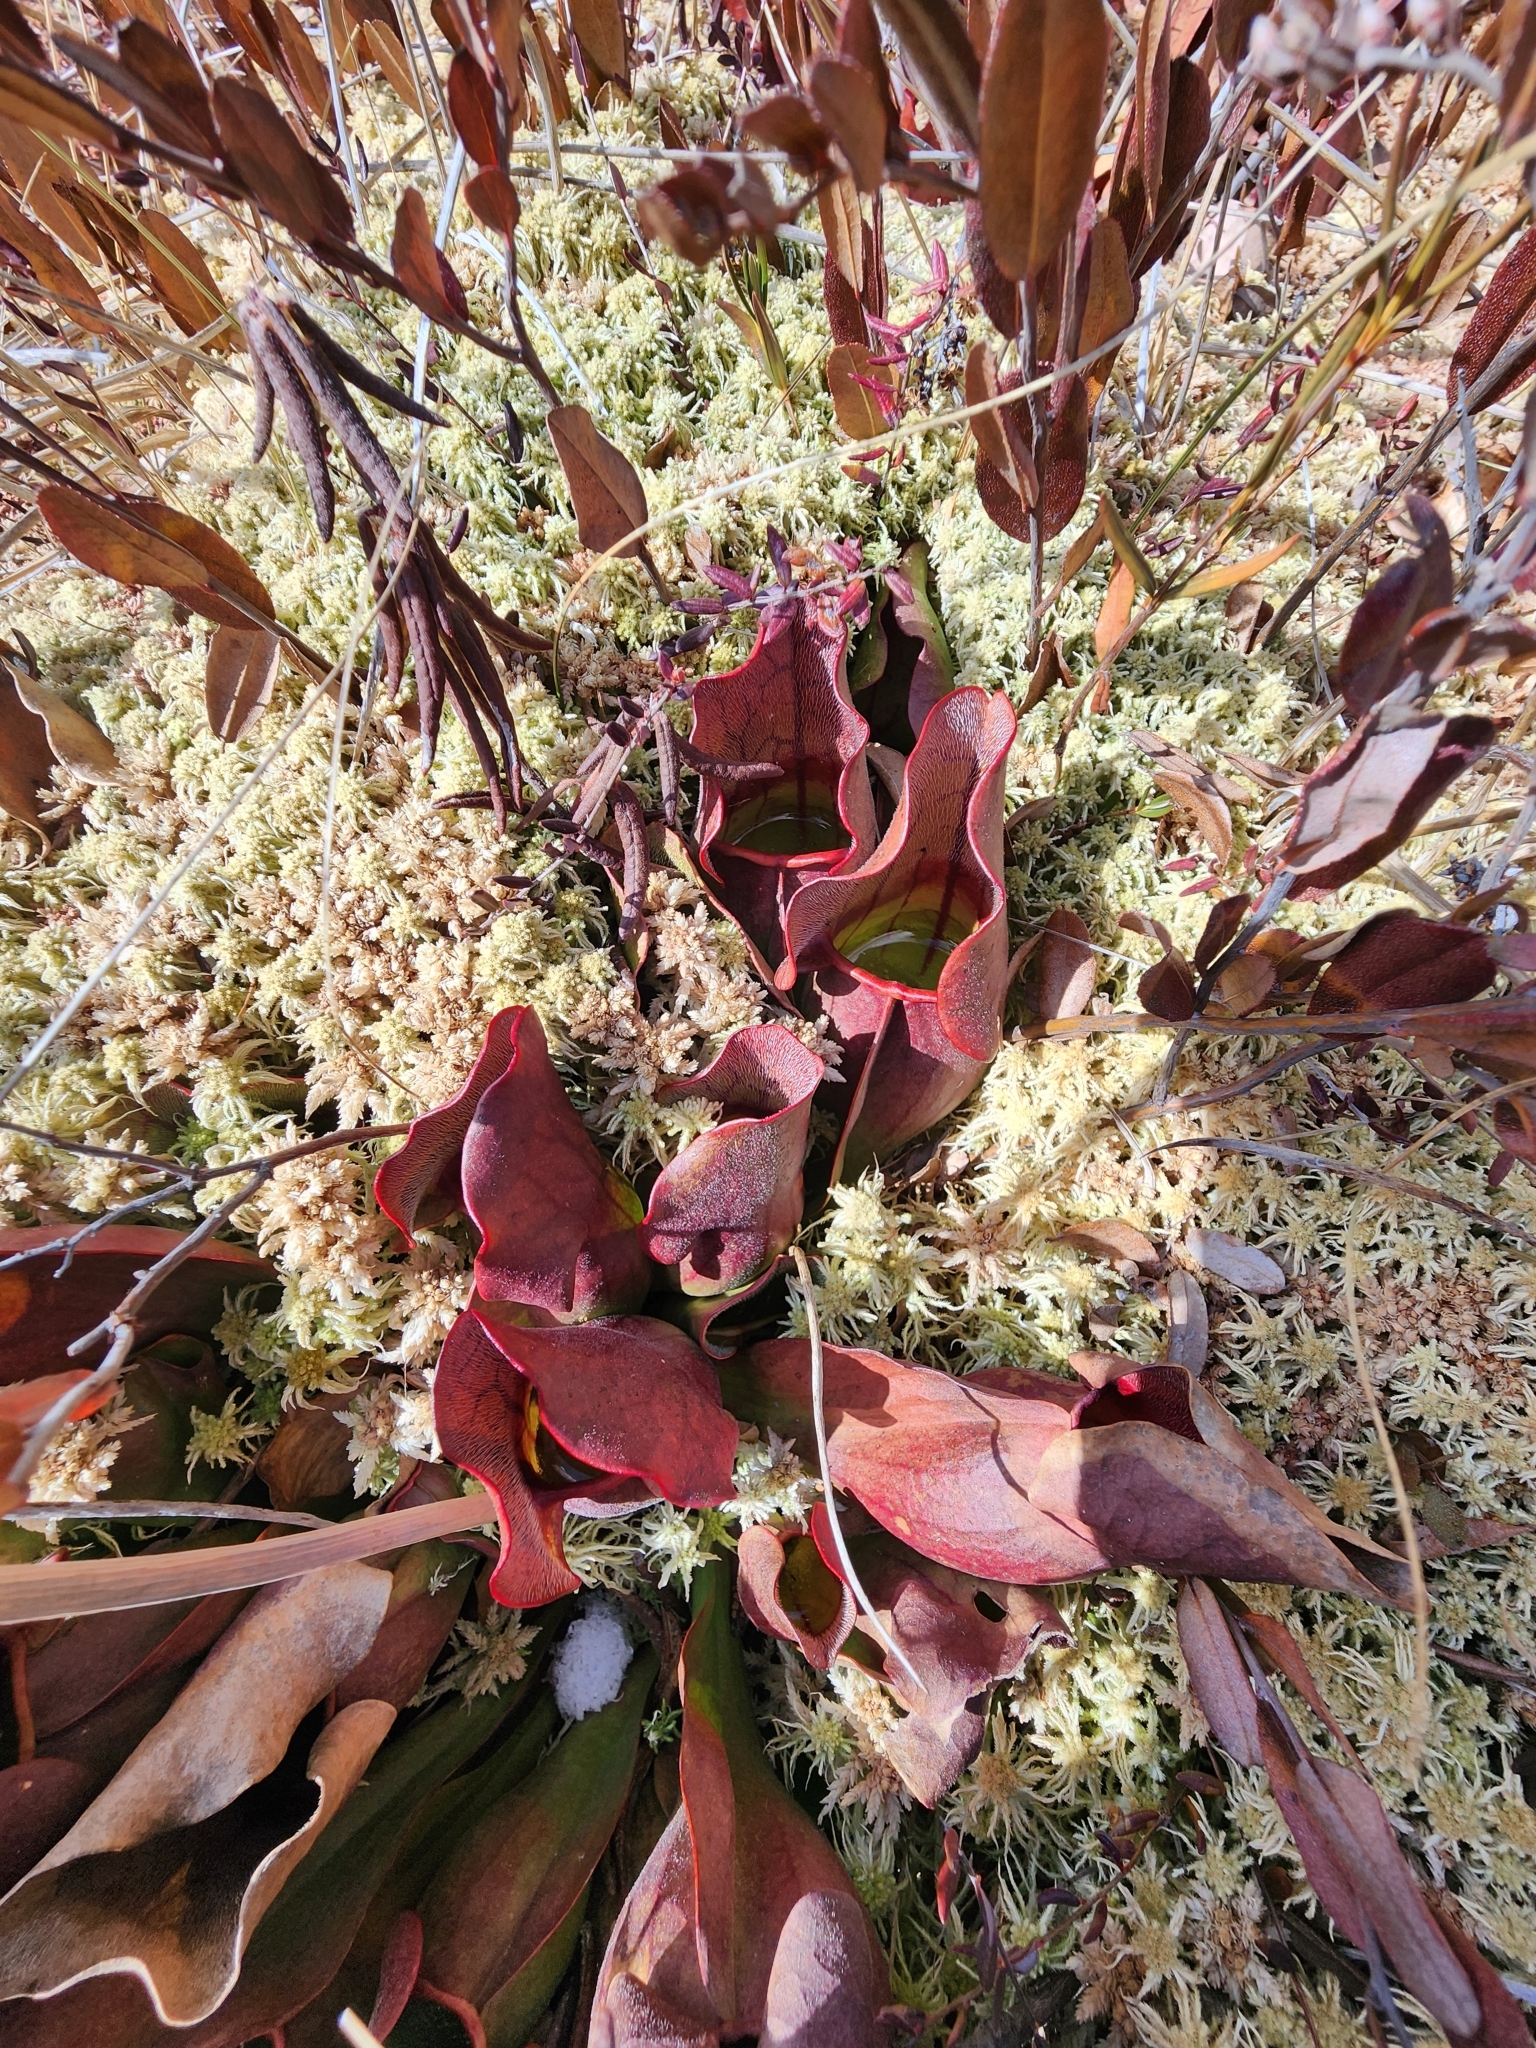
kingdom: Plantae
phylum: Tracheophyta
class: Magnoliopsida
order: Ericales
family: Sarraceniaceae
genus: Sarracenia
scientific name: Sarracenia purpurea
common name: Pitcherplant
